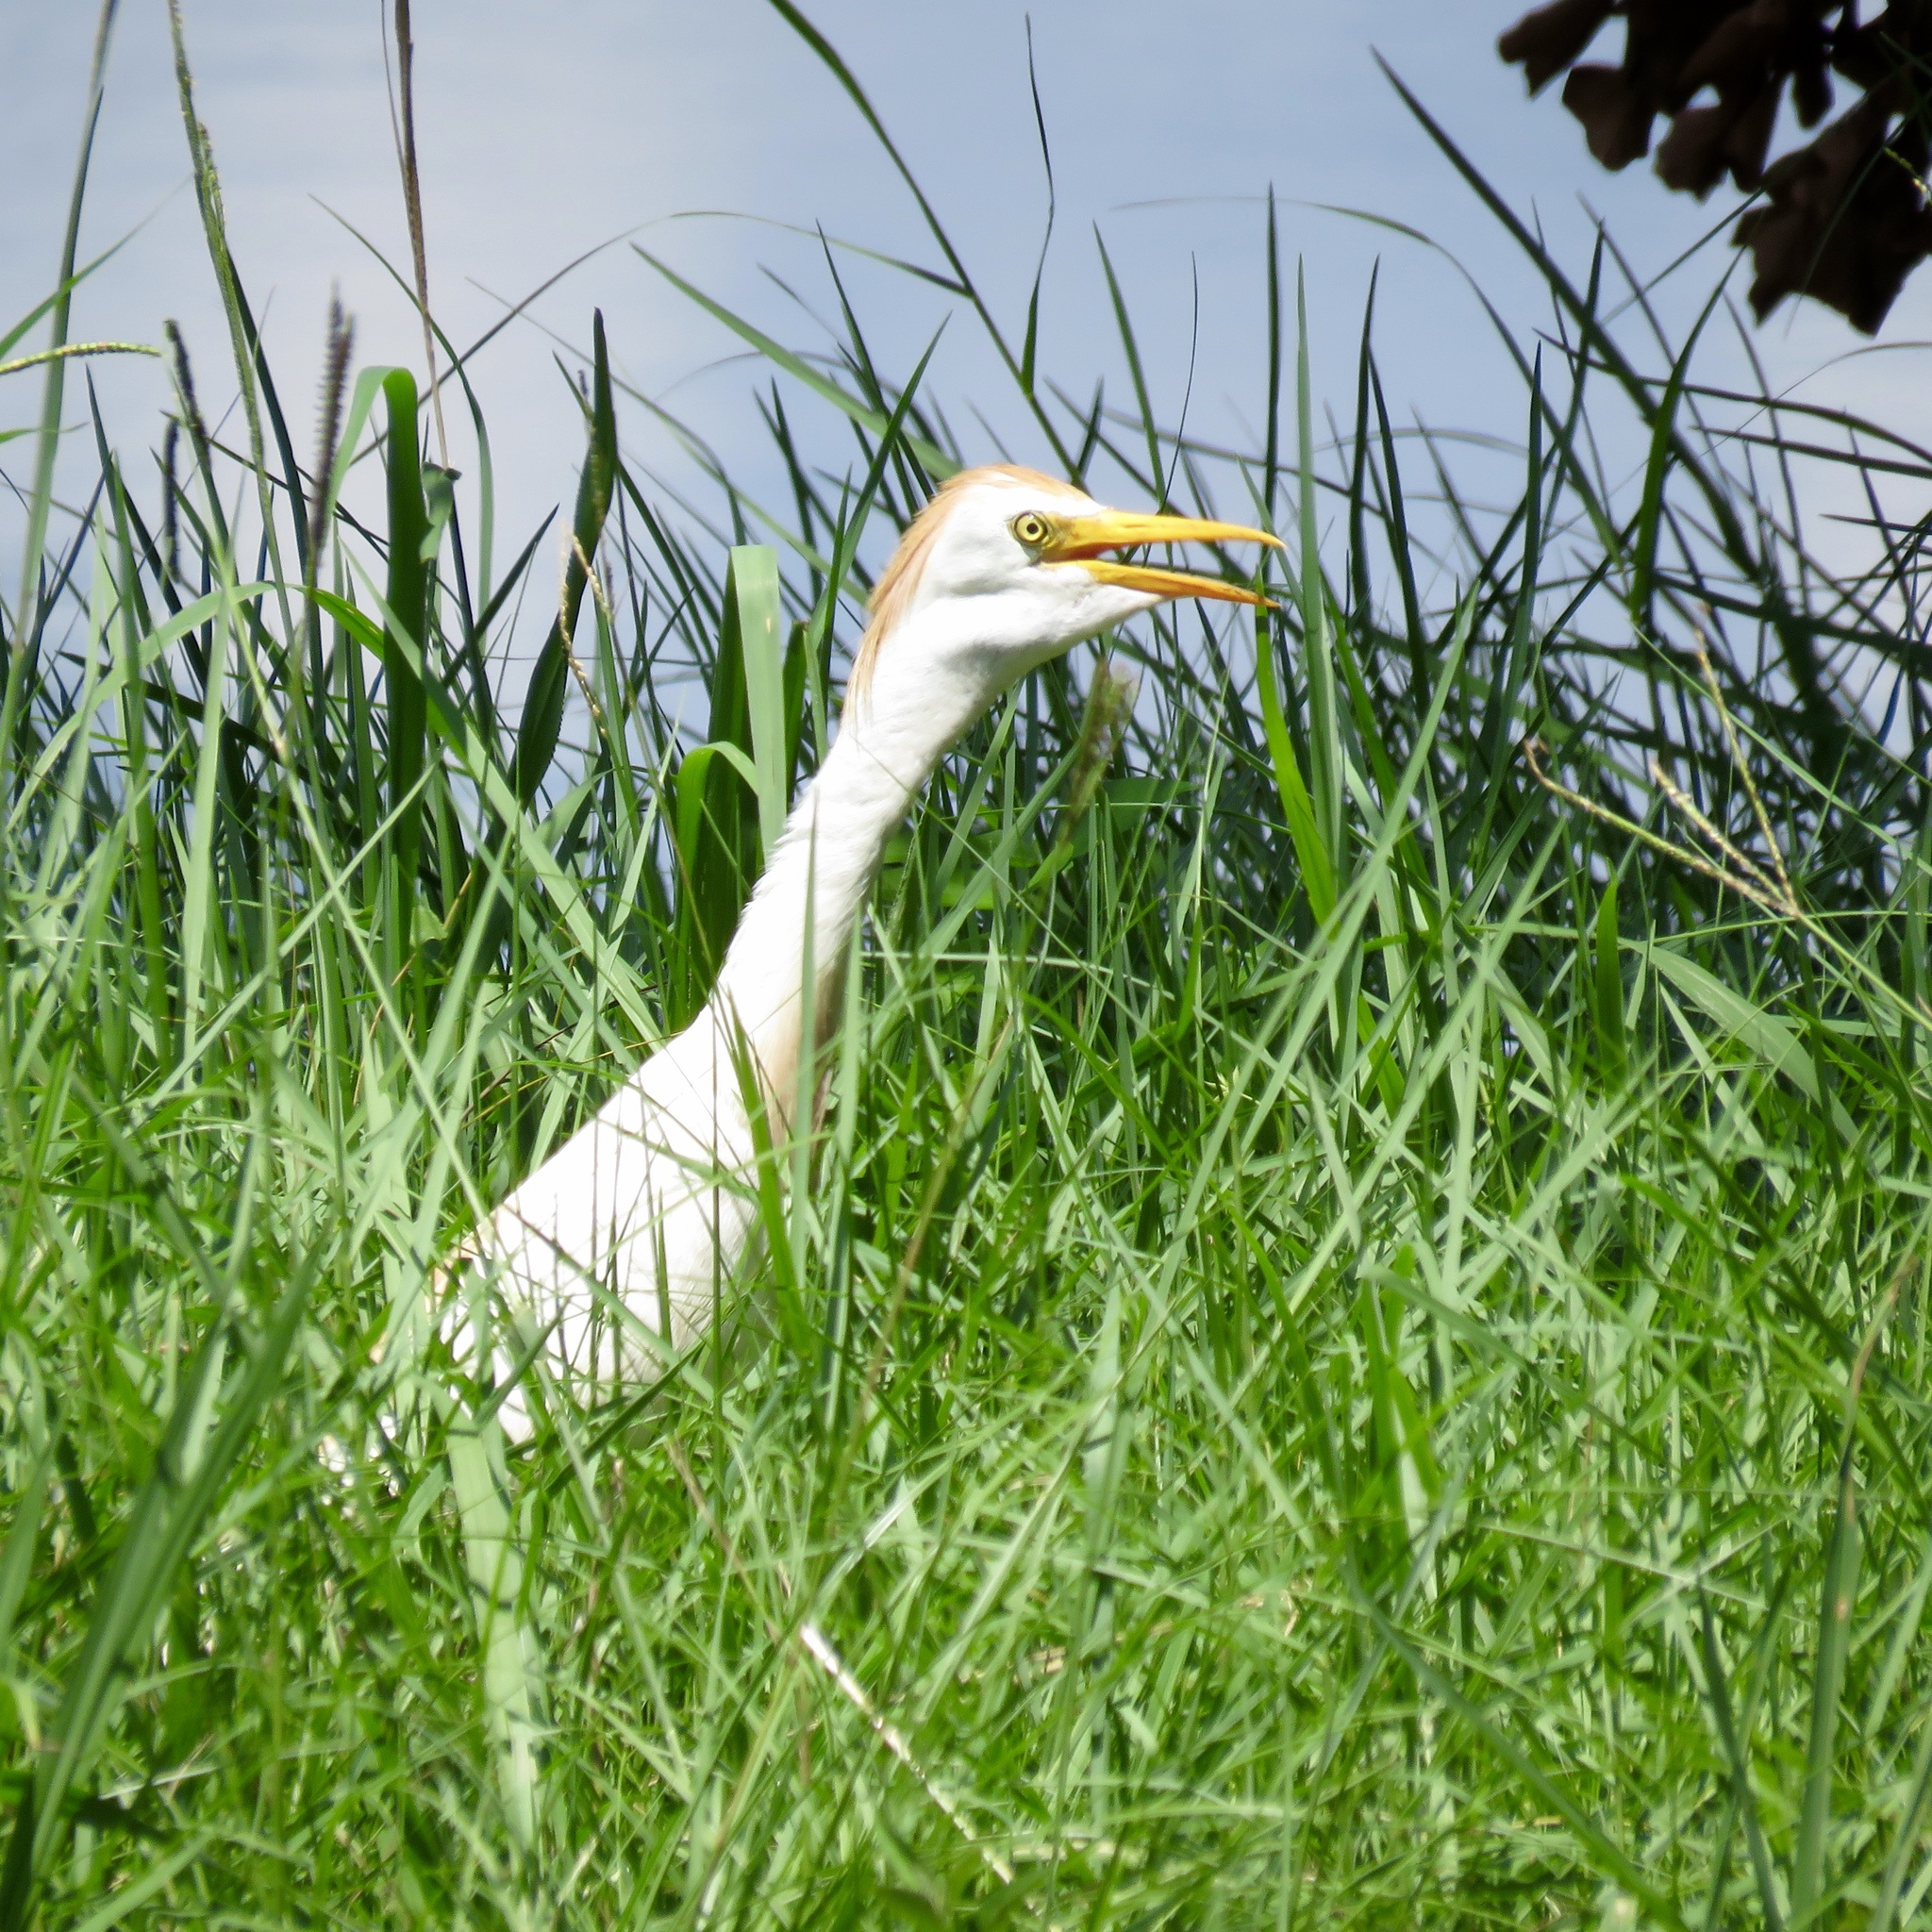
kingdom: Animalia
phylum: Chordata
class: Aves
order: Pelecaniformes
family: Ardeidae
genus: Bubulcus
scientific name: Bubulcus ibis
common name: Cattle egret
